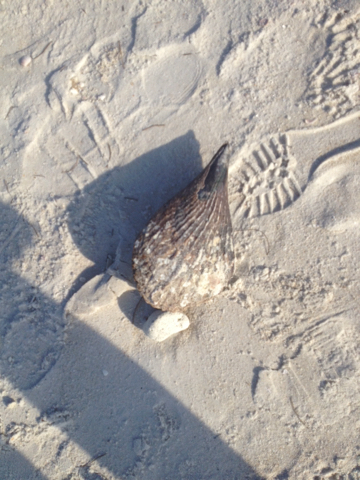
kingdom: Animalia
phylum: Mollusca
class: Bivalvia
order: Ostreida
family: Pinnidae
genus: Atrina
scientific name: Atrina rigida
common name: Stiff penshell
